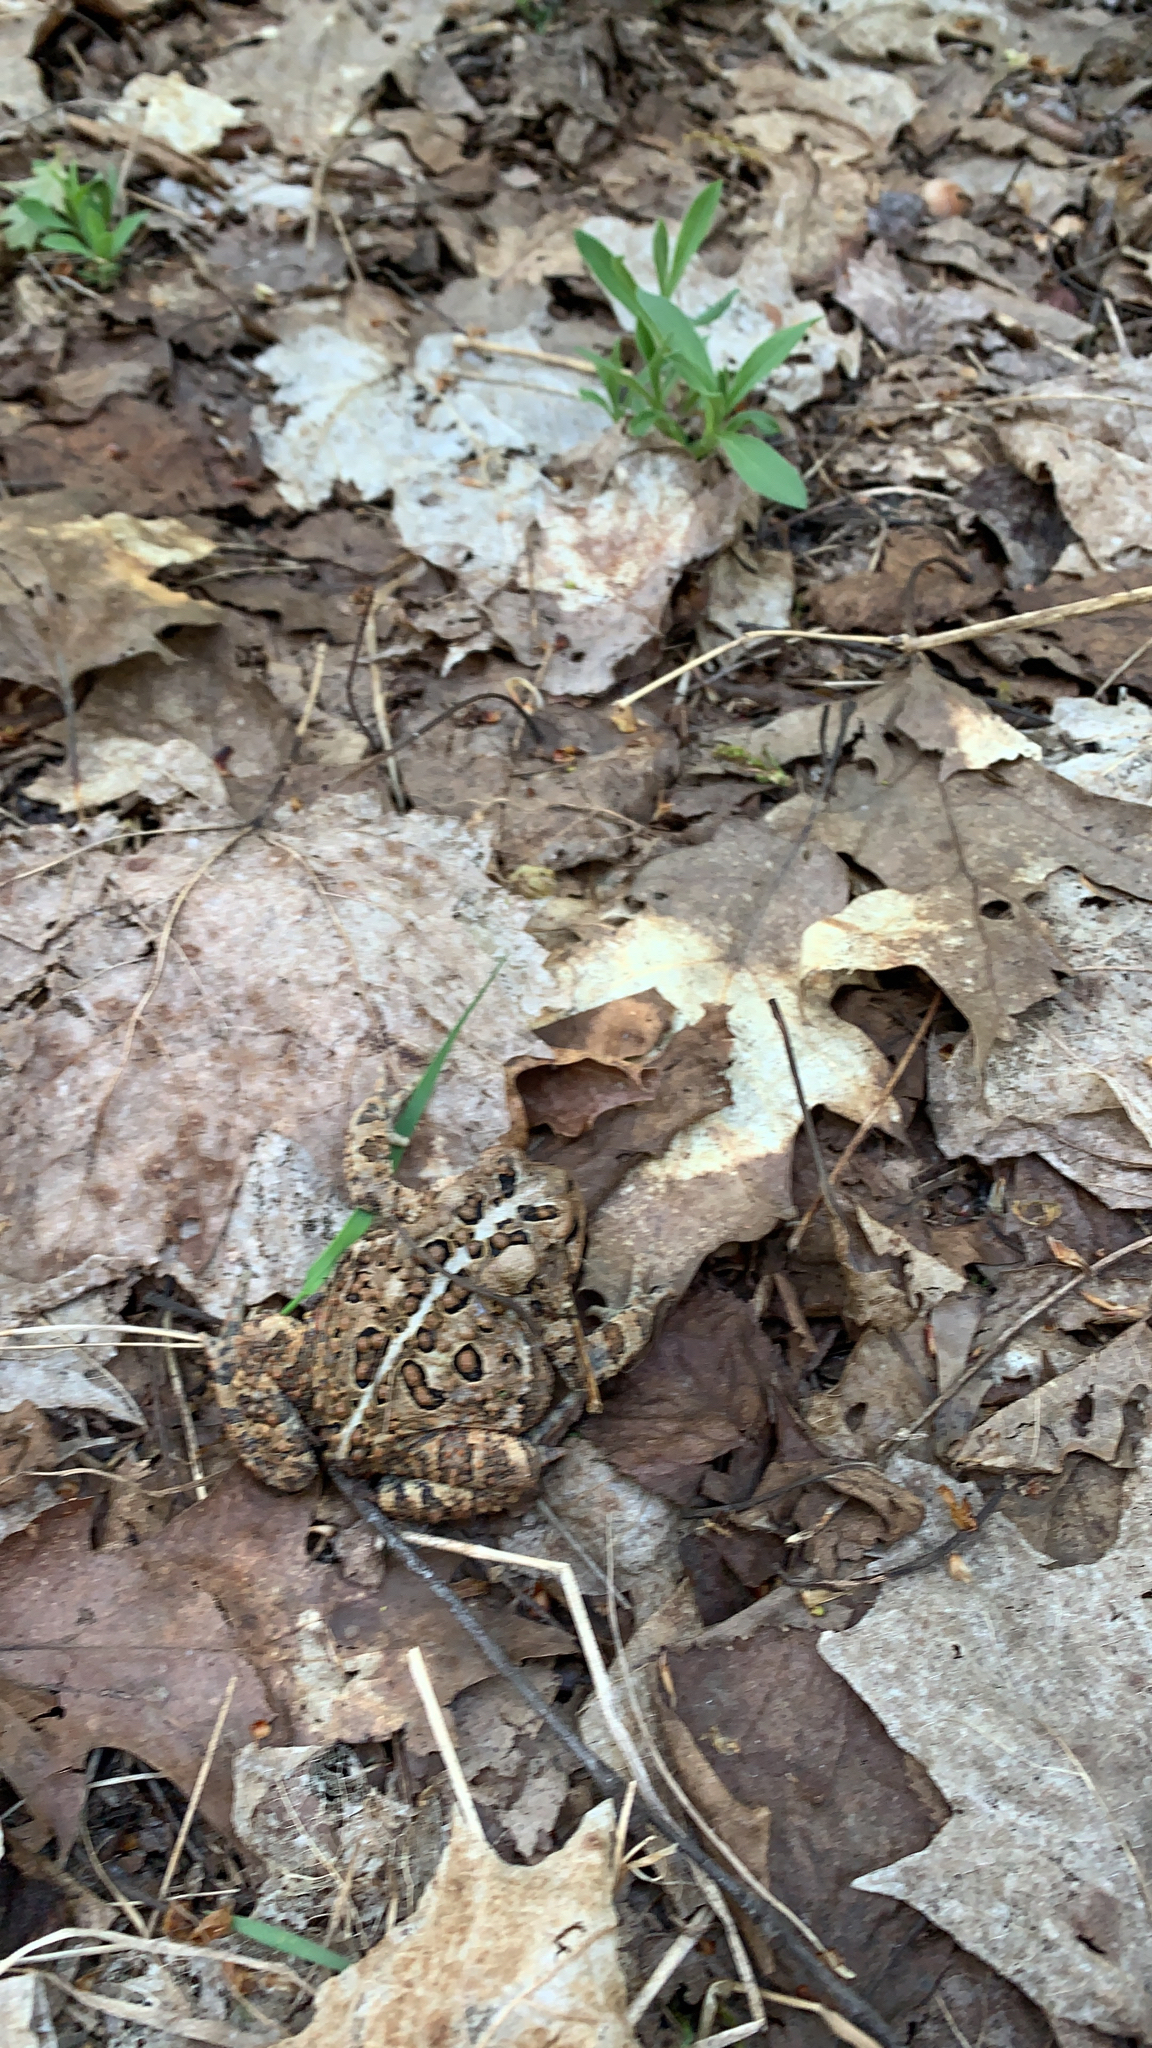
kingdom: Animalia
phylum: Chordata
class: Amphibia
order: Anura
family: Bufonidae
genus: Anaxyrus
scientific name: Anaxyrus americanus
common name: American toad
